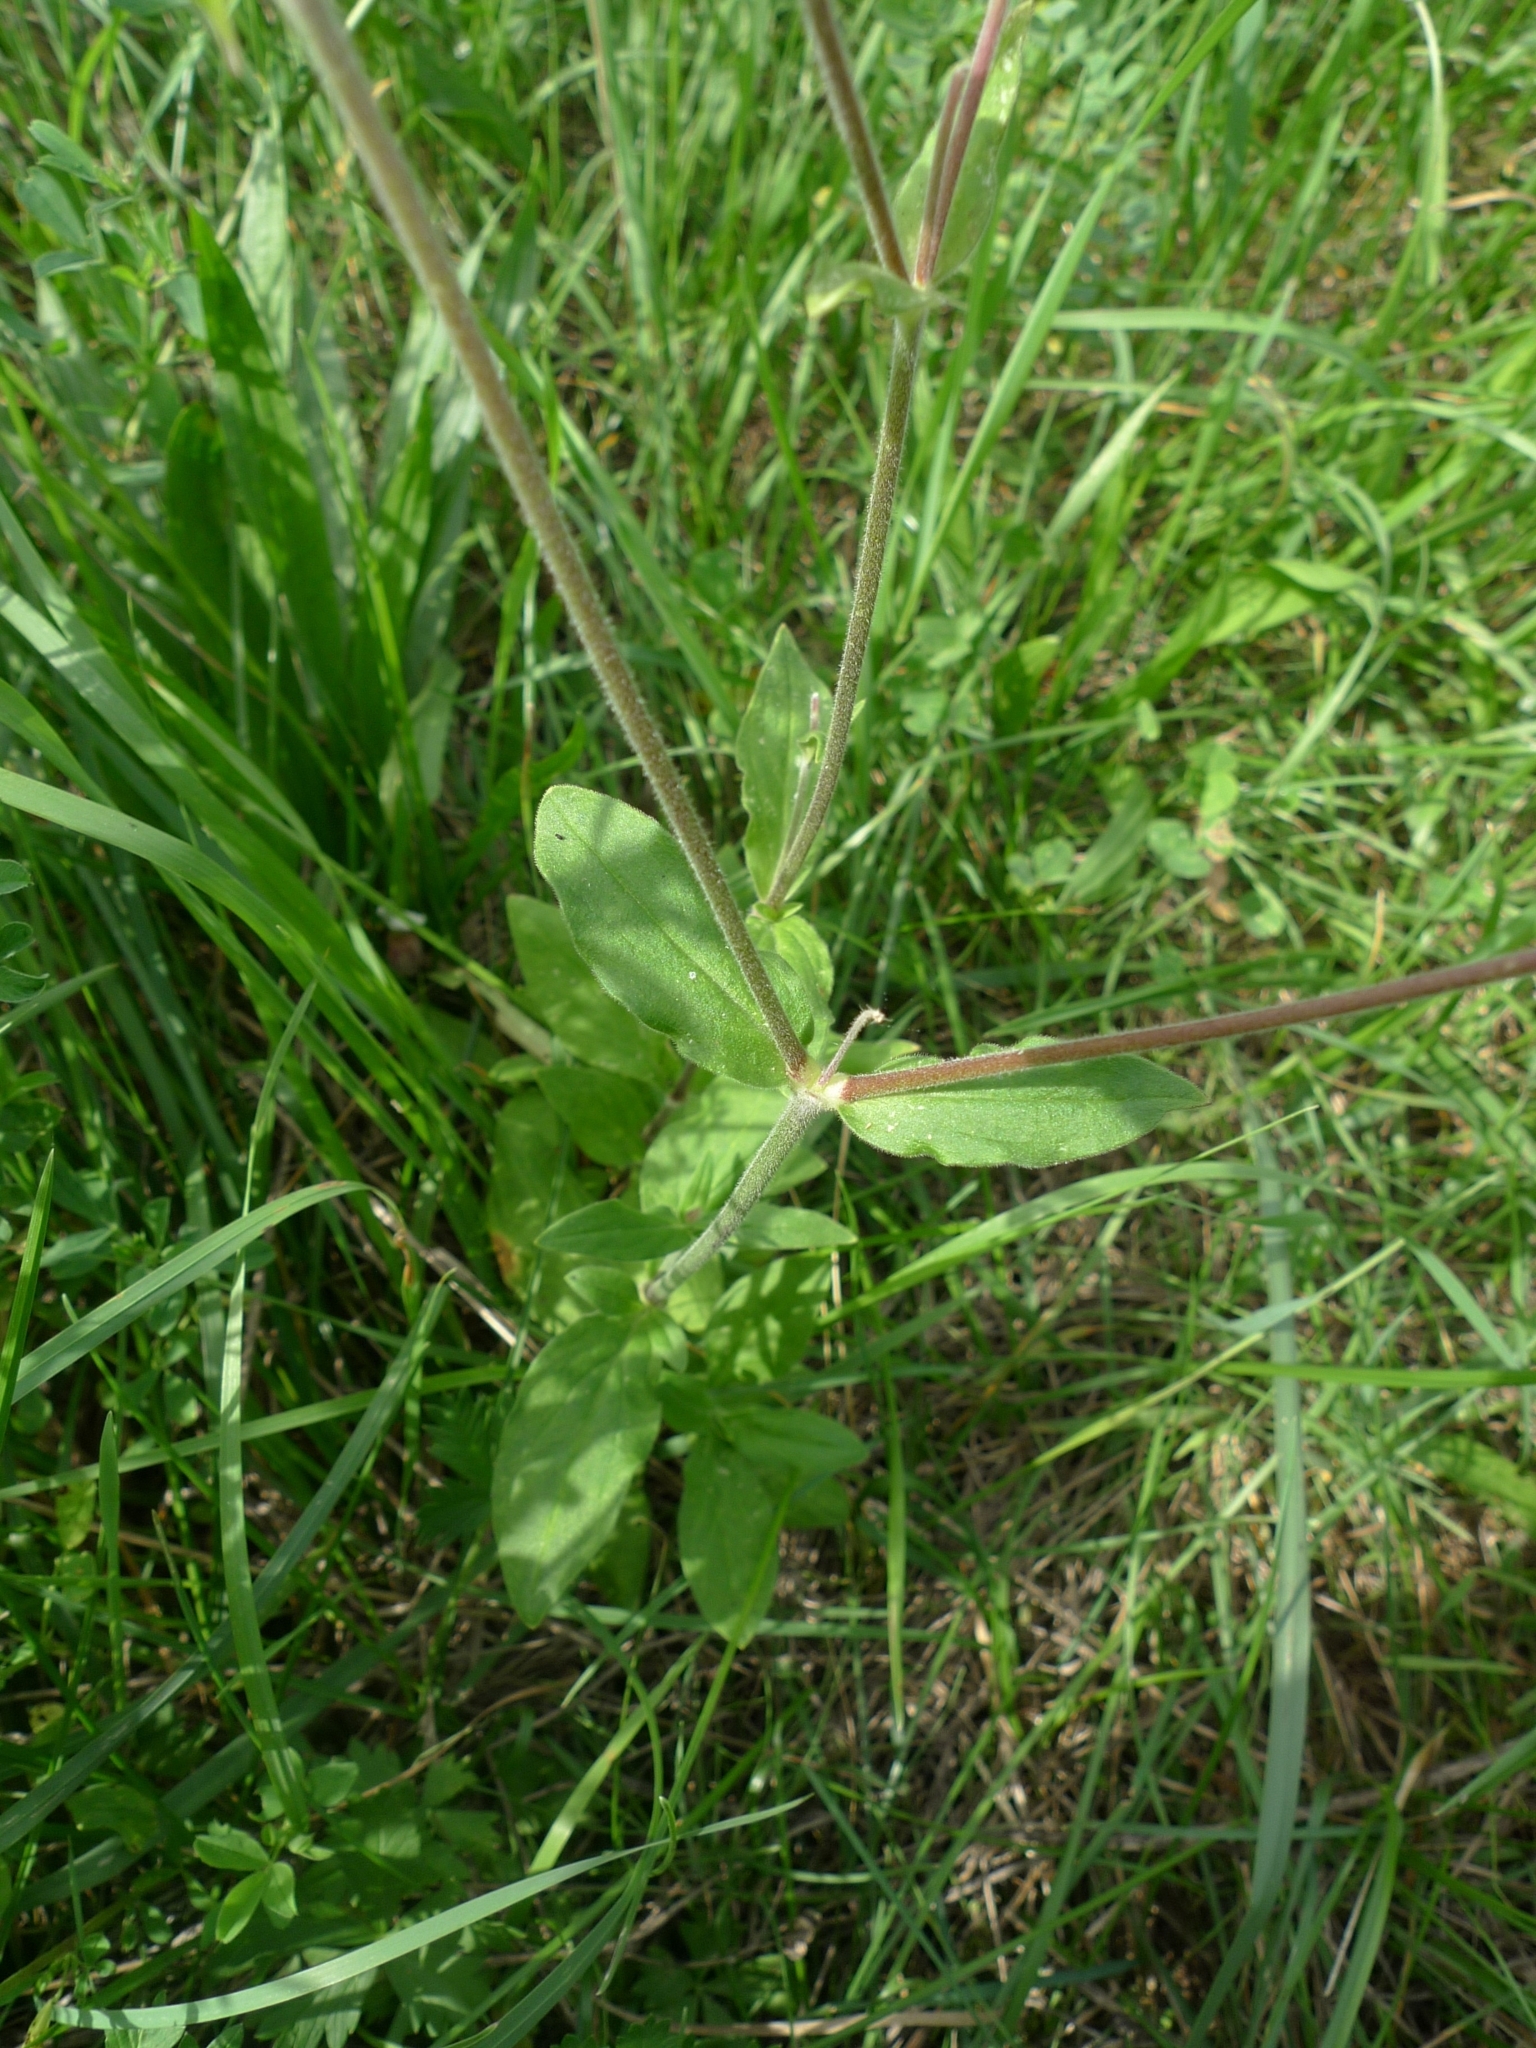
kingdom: Plantae
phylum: Tracheophyta
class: Magnoliopsida
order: Caryophyllales
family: Caryophyllaceae
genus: Silene
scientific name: Silene latifolia
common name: White campion
